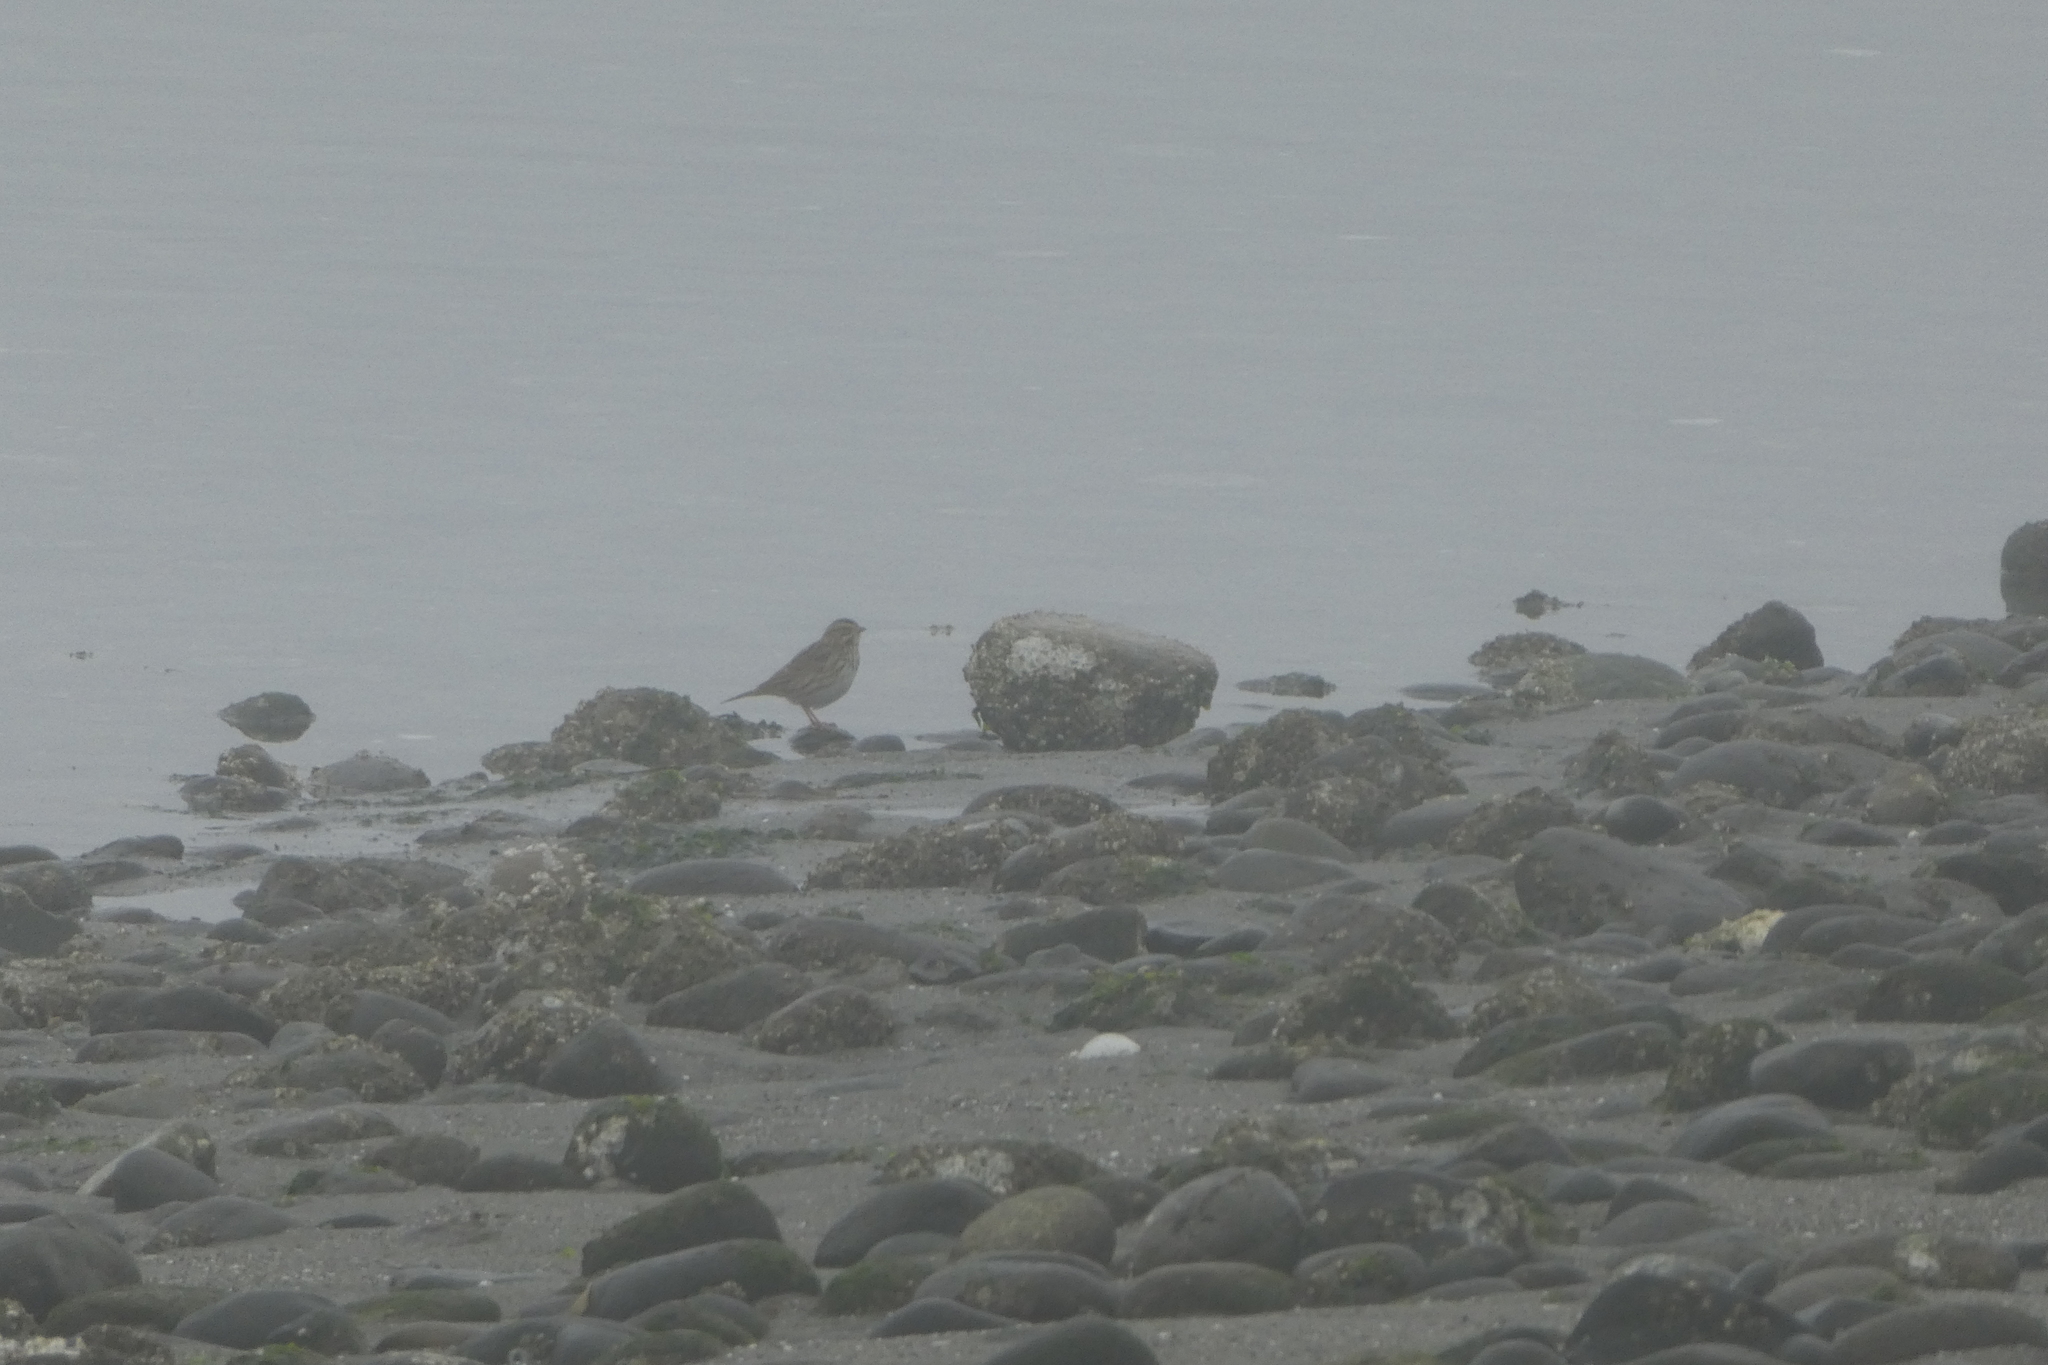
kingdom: Animalia
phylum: Chordata
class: Aves
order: Passeriformes
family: Passerellidae
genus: Passerculus
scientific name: Passerculus sandwichensis
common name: Savannah sparrow
